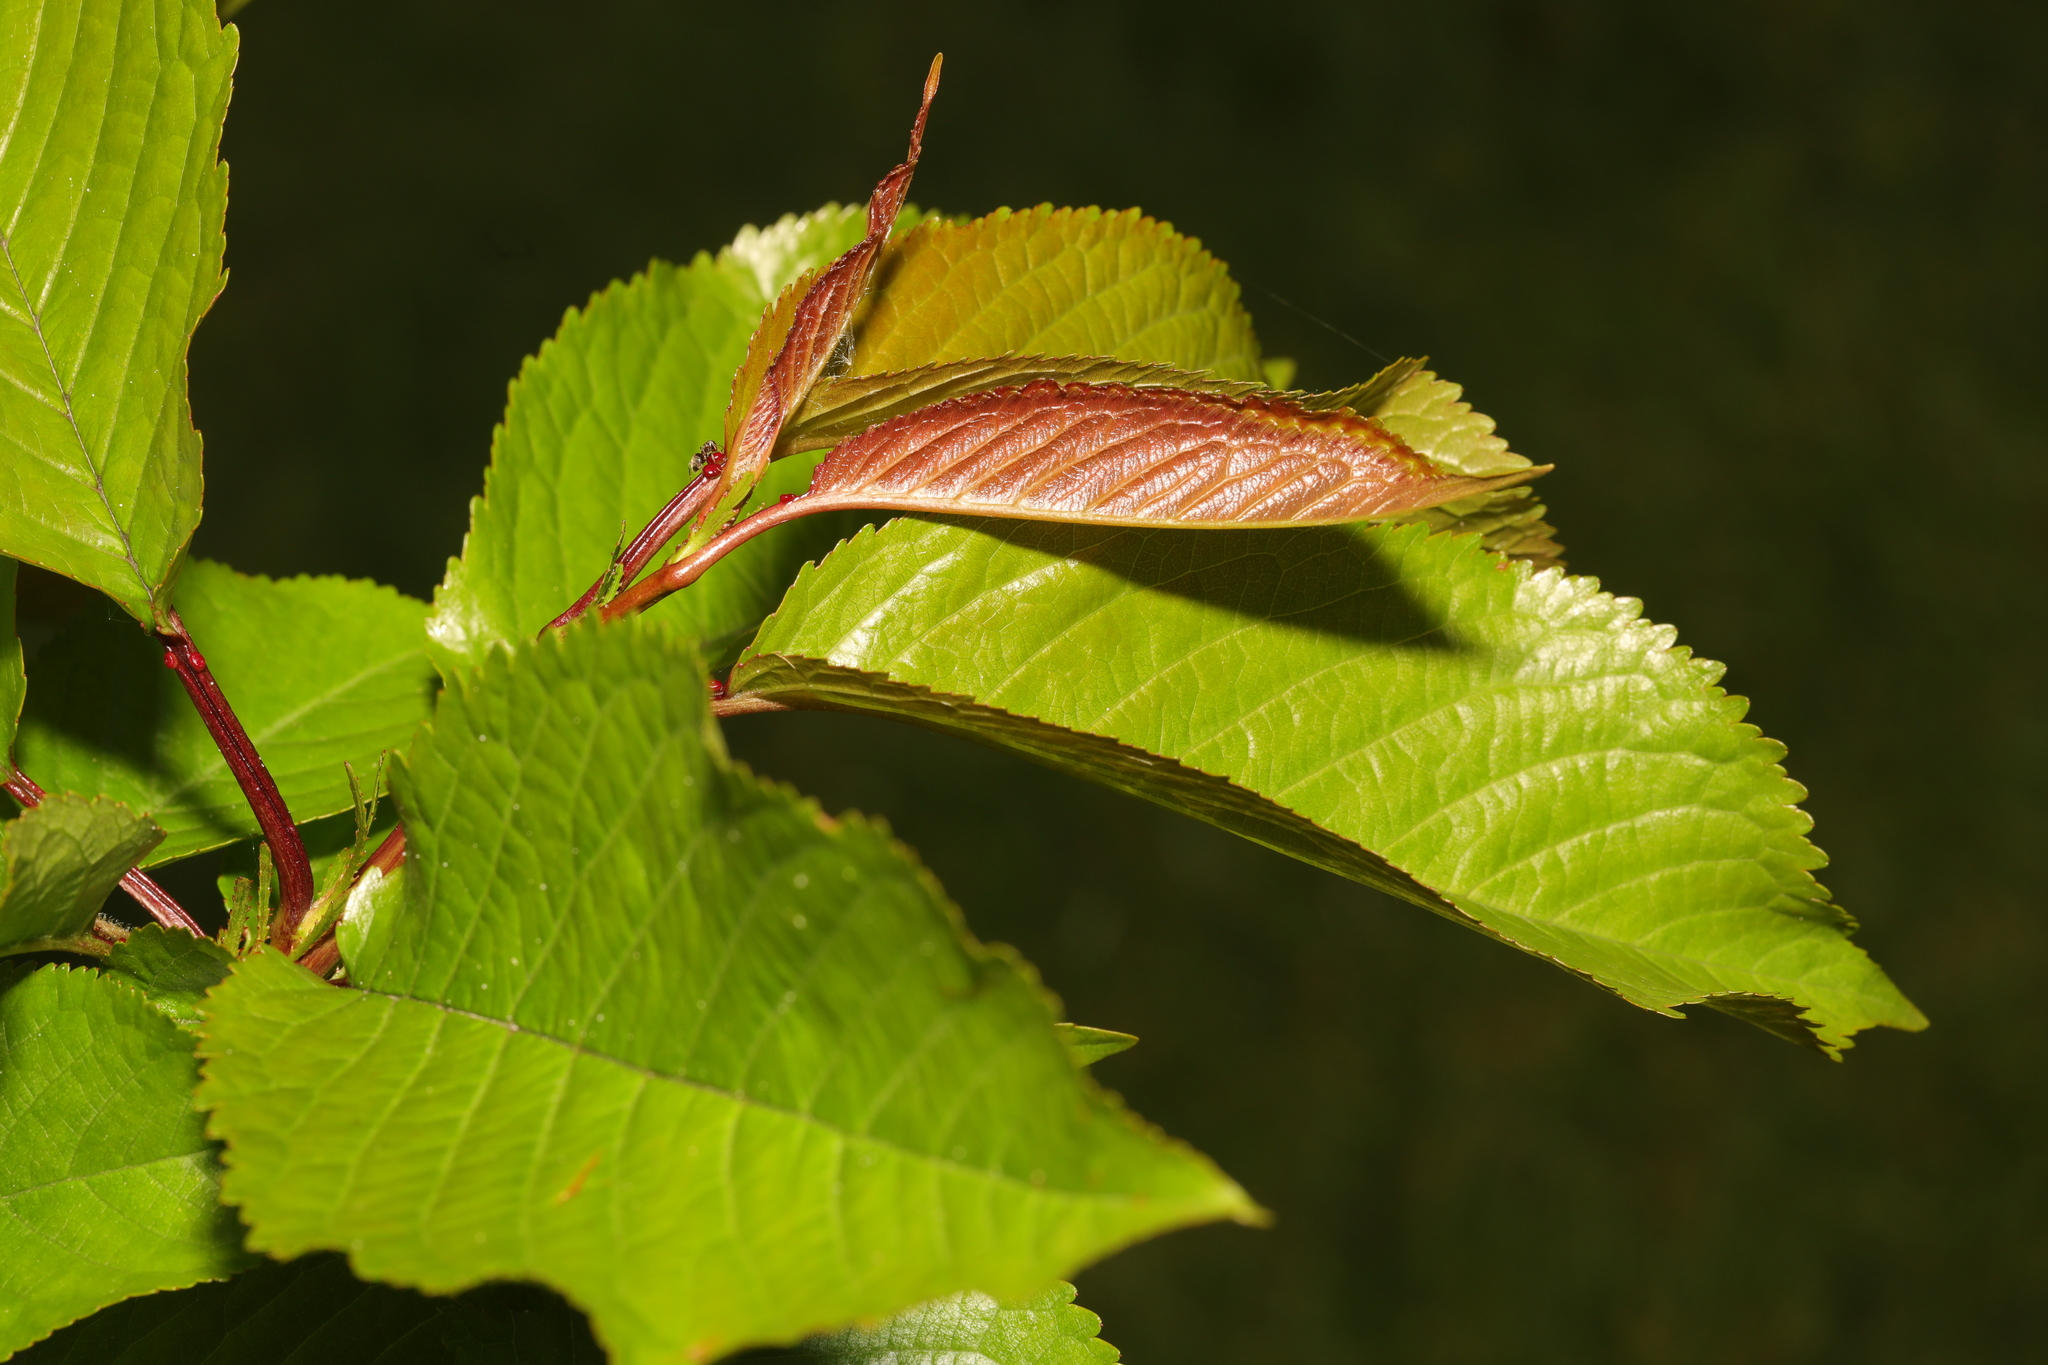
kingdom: Plantae
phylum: Tracheophyta
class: Magnoliopsida
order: Rosales
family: Rosaceae
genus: Prunus
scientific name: Prunus avium
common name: Sweet cherry
